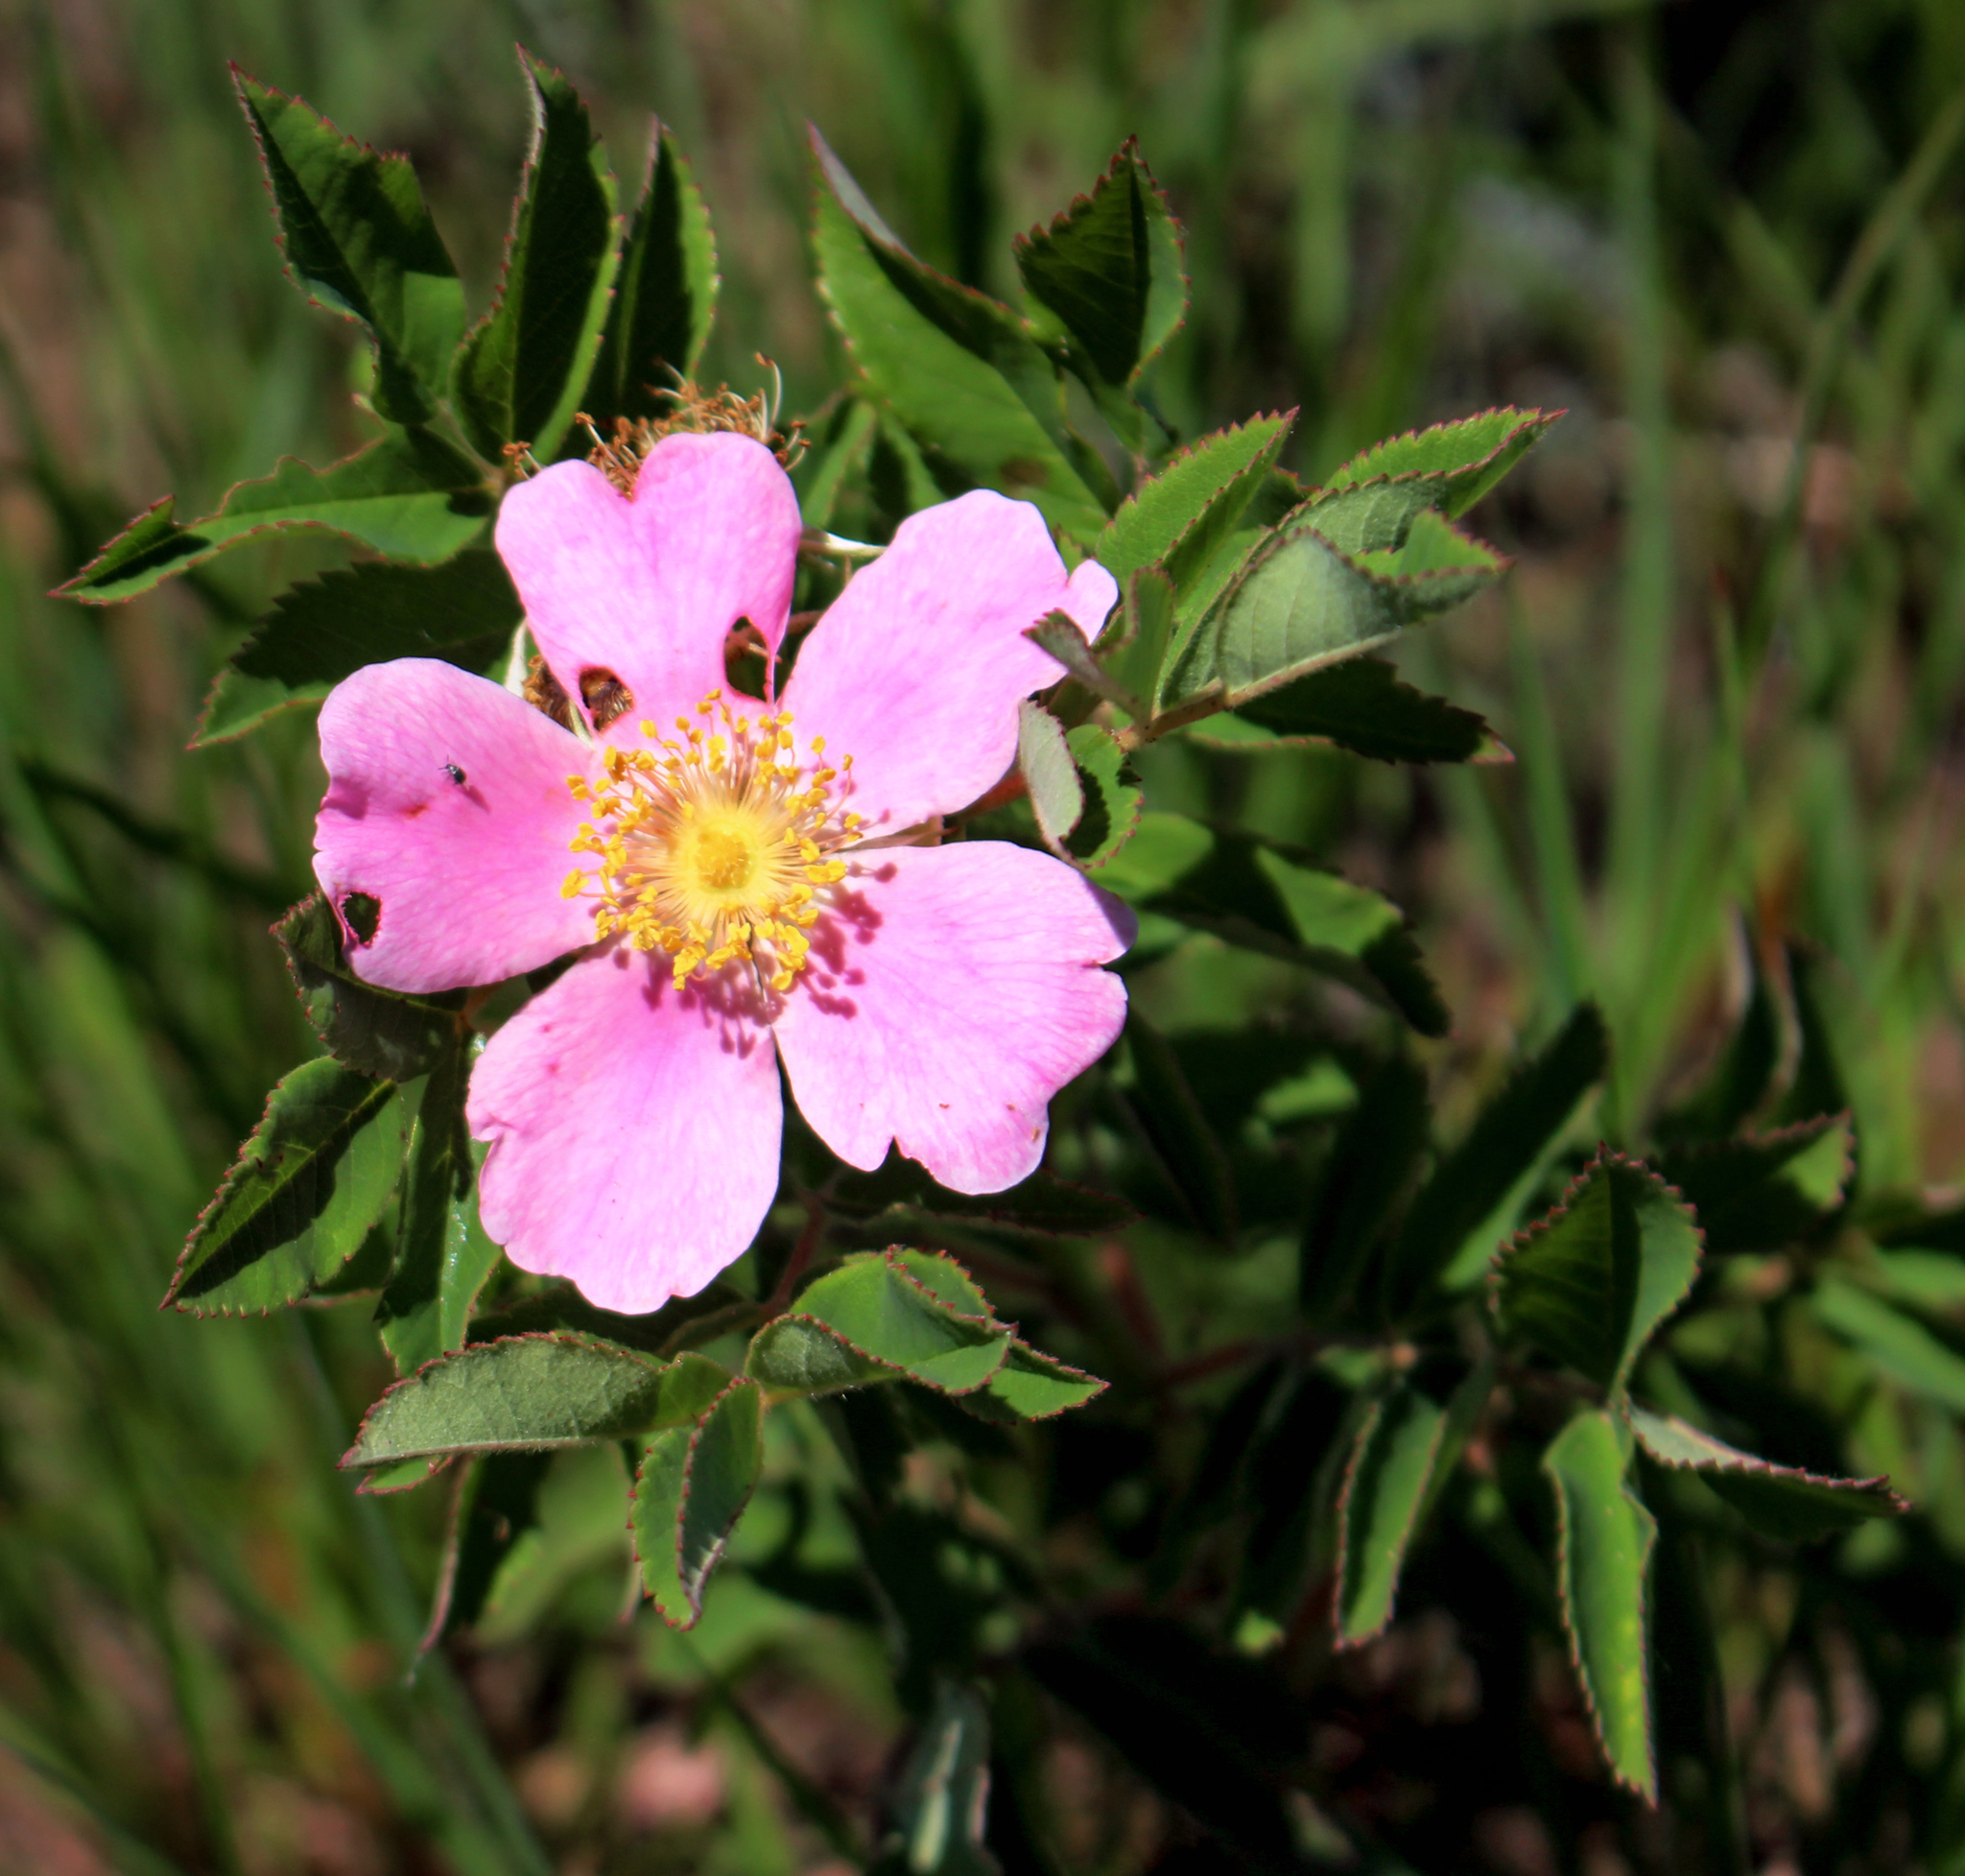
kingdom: Plantae
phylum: Tracheophyta
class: Magnoliopsida
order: Rosales
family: Rosaceae
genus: Rosa
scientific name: Rosa blanda
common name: Smooth rose
